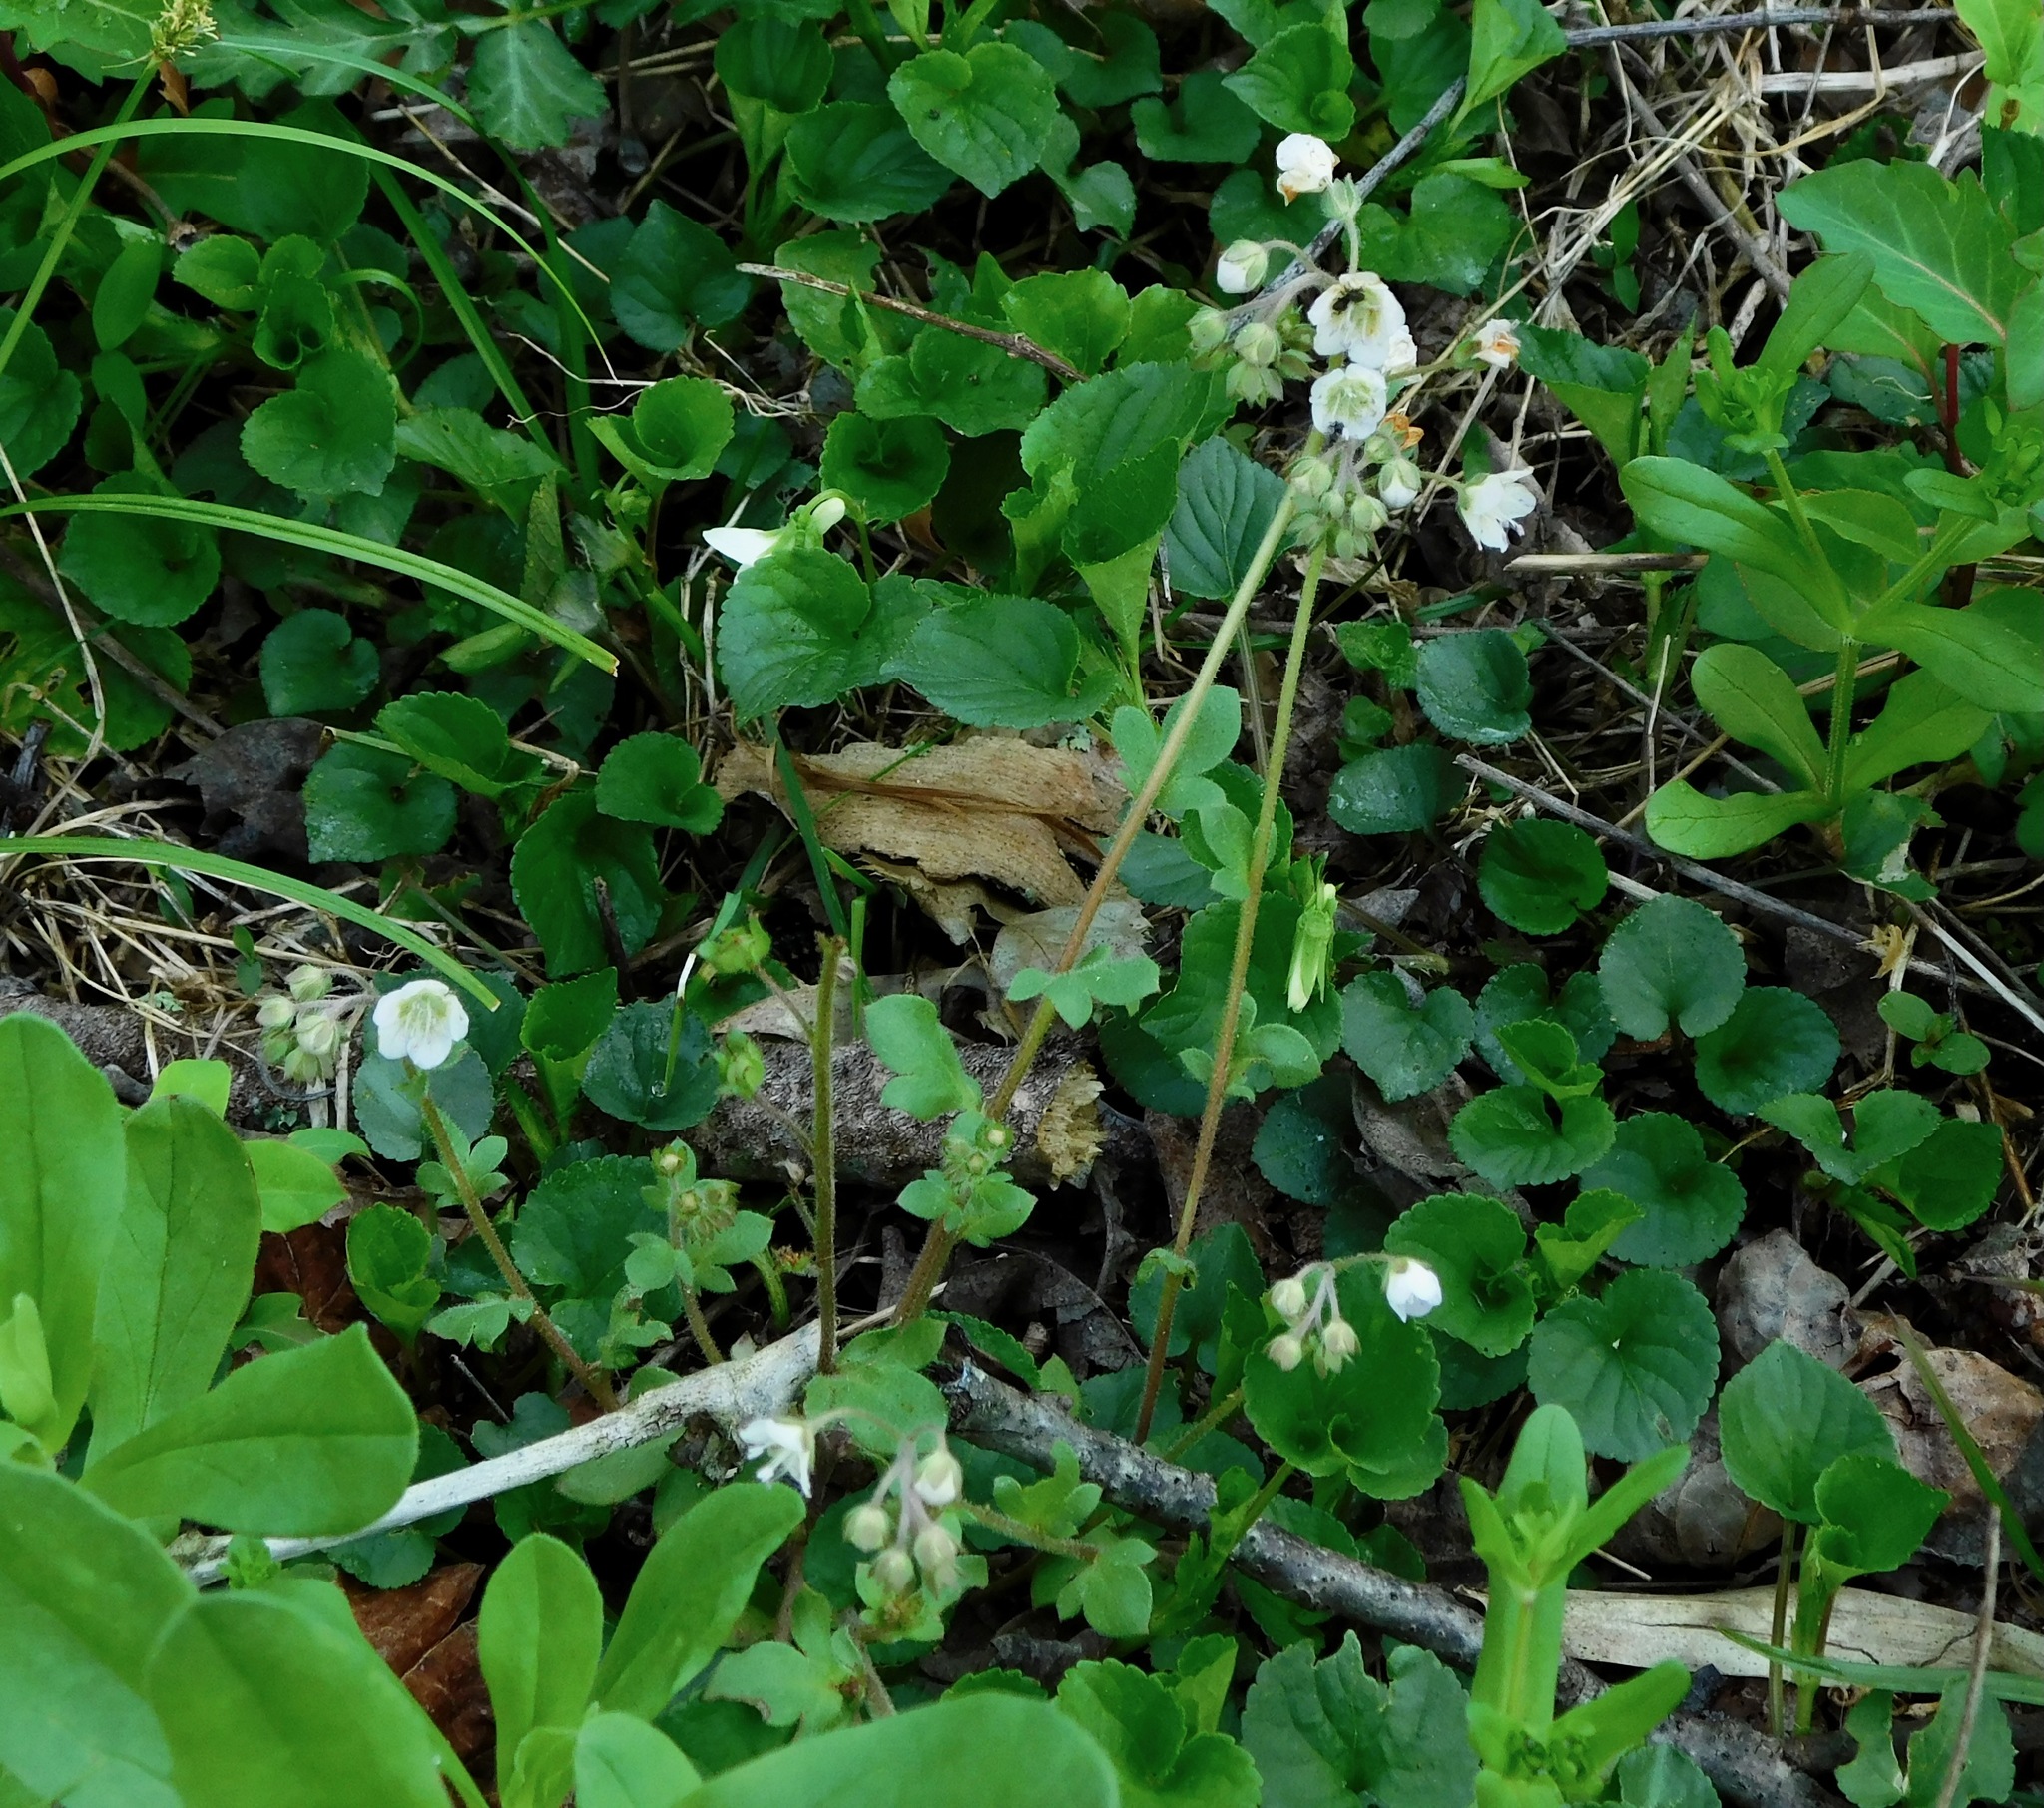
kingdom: Plantae
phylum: Tracheophyta
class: Magnoliopsida
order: Boraginales
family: Hydrophyllaceae
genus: Phacelia
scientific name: Phacelia dubia
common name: Appalachian phacelia
